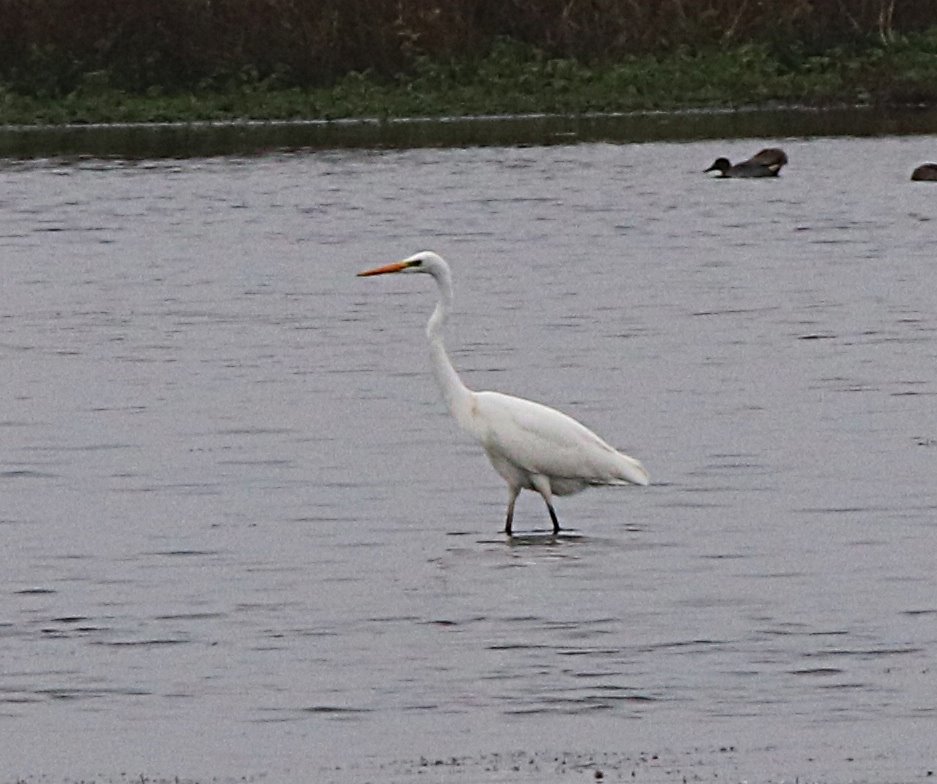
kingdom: Animalia
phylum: Chordata
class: Aves
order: Pelecaniformes
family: Ardeidae
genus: Ardea
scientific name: Ardea alba
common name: Great egret
